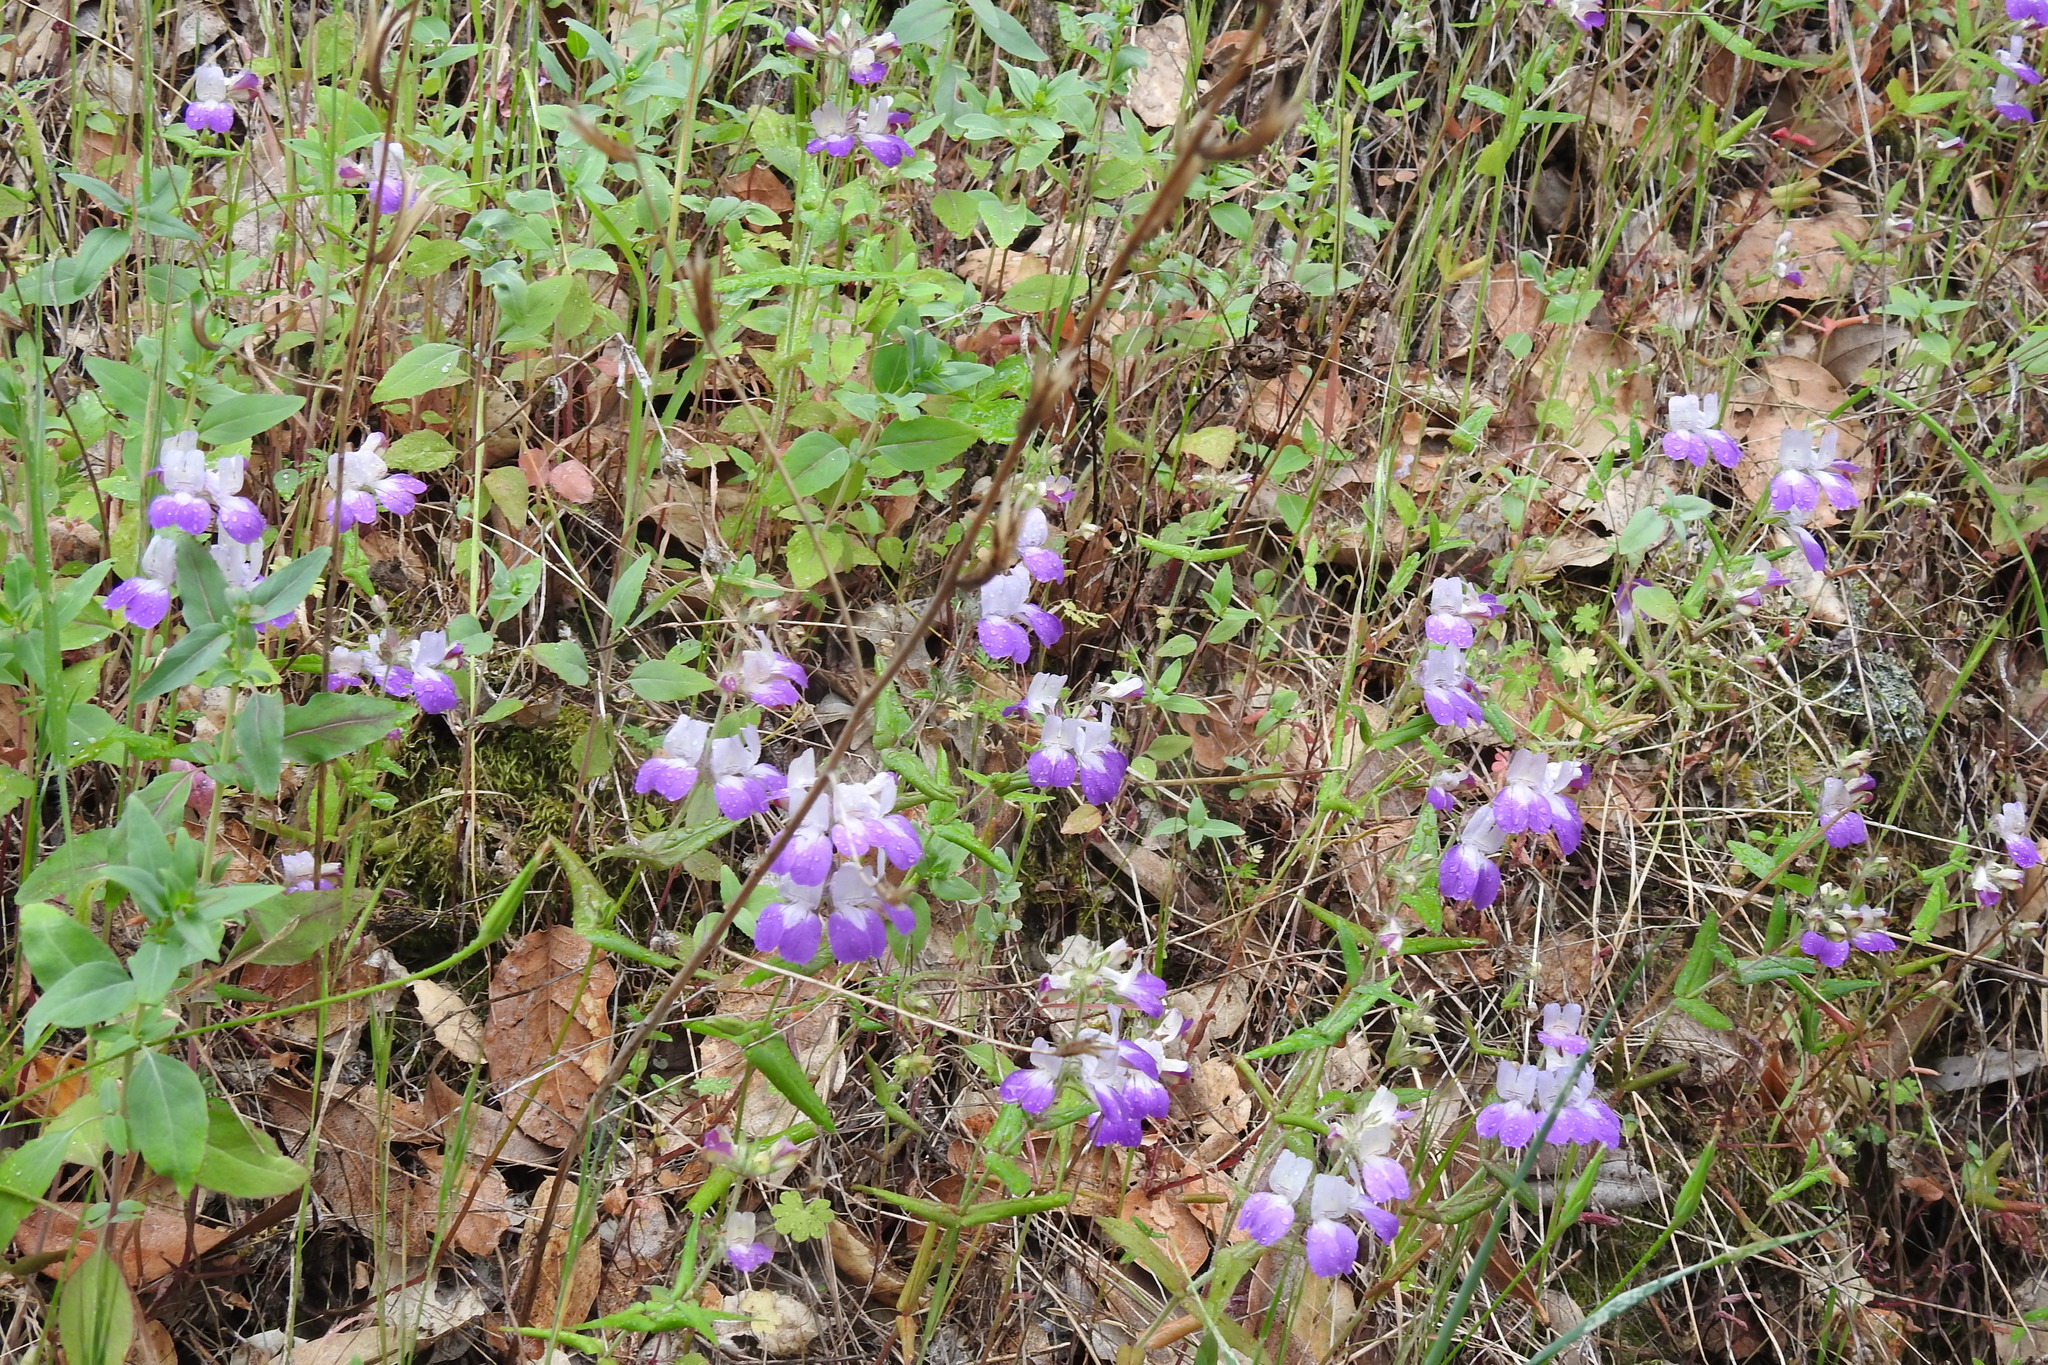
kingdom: Plantae
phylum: Tracheophyta
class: Magnoliopsida
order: Lamiales
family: Plantaginaceae
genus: Collinsia
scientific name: Collinsia heterophylla
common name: Chinese-houses
